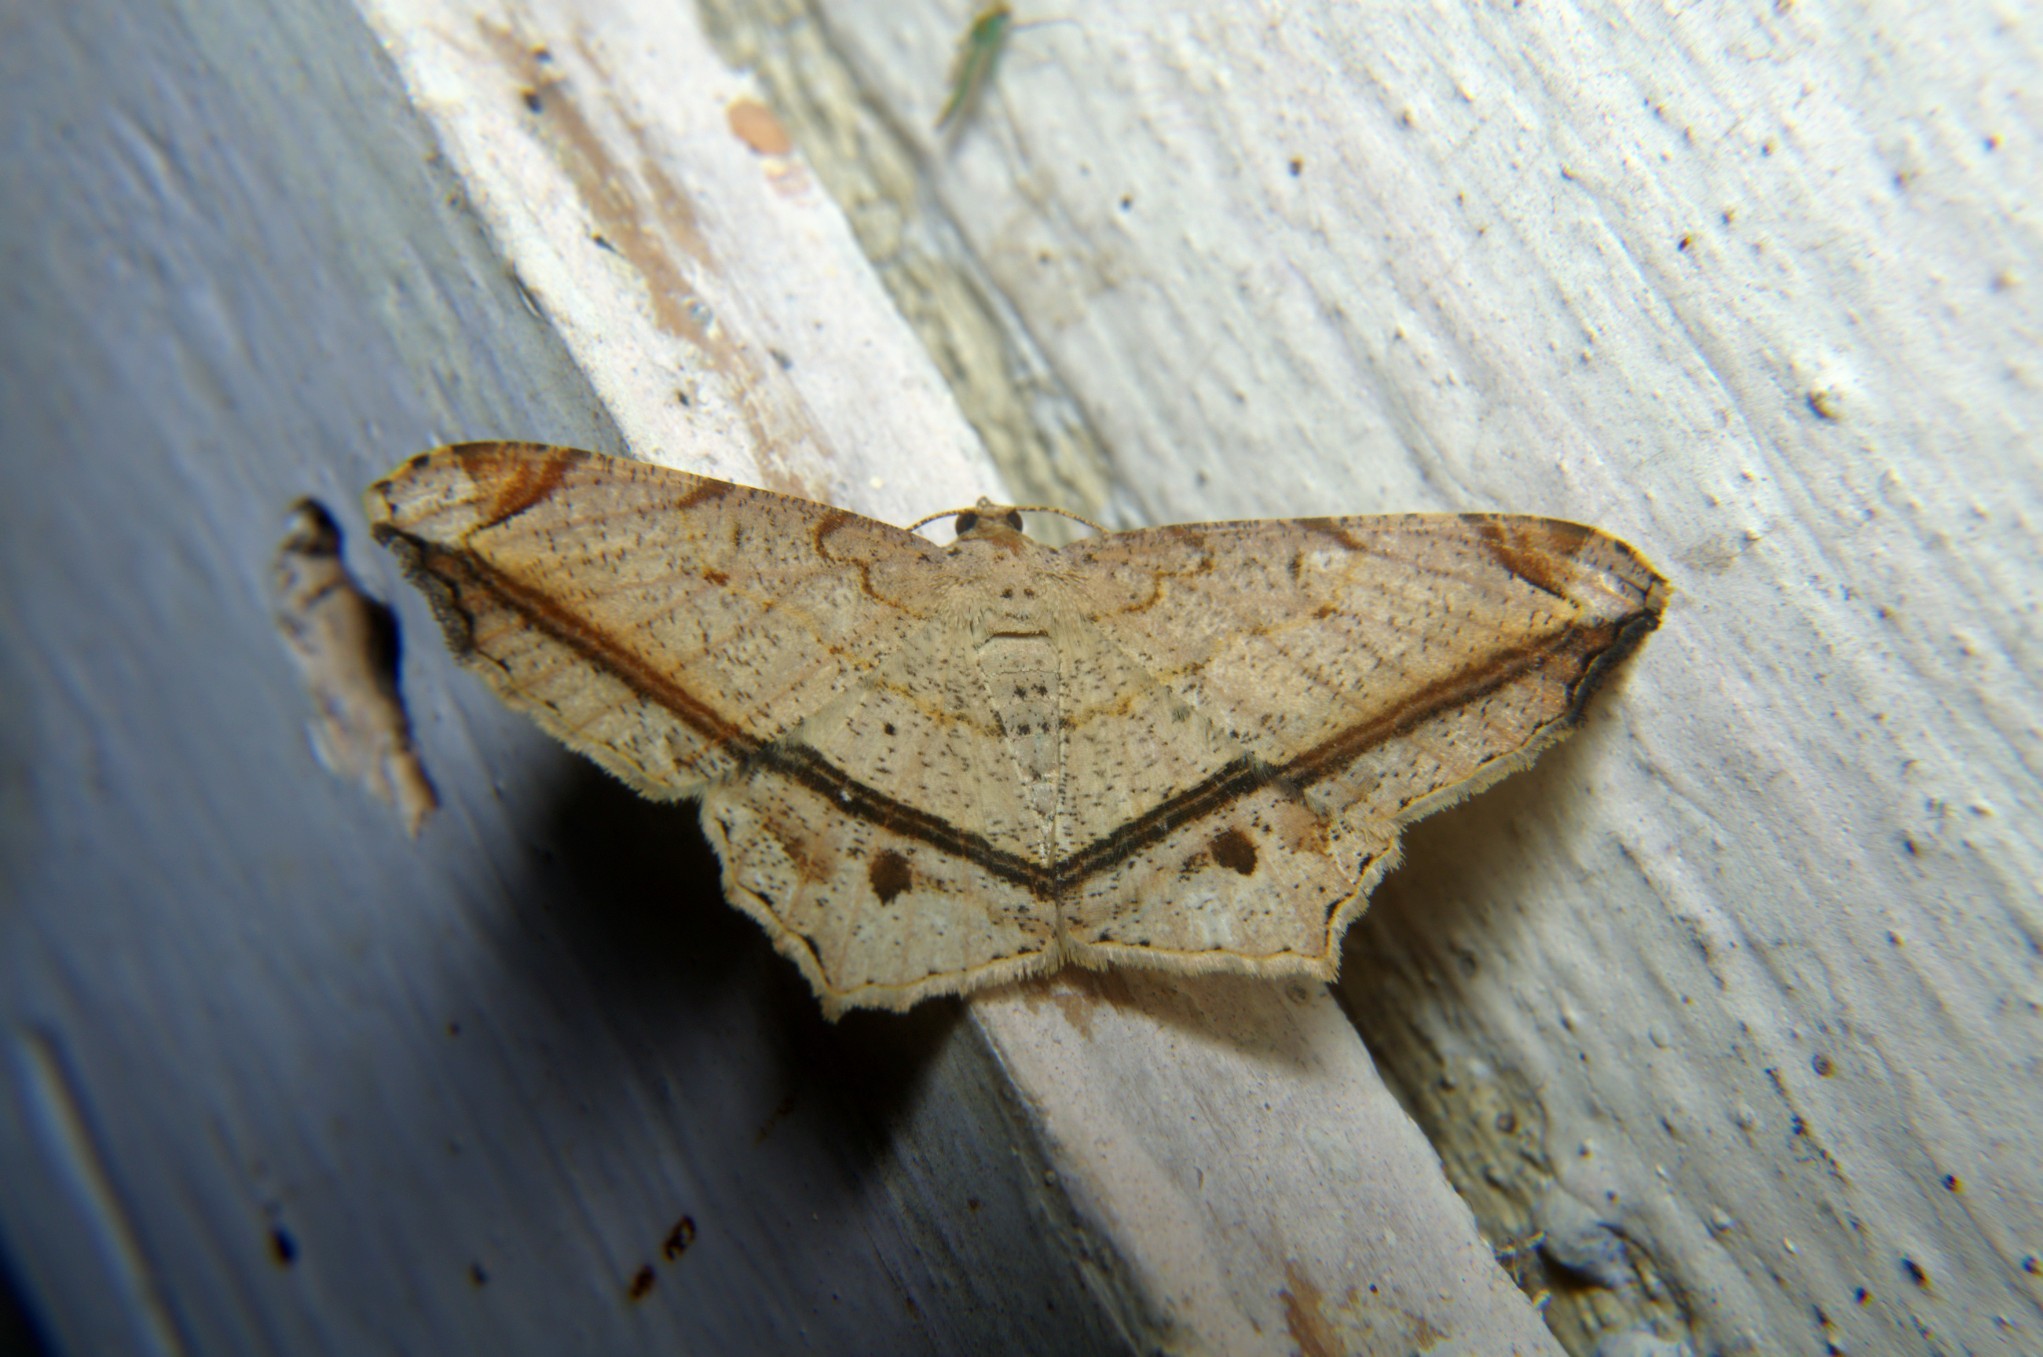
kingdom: Animalia
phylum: Arthropoda
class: Insecta
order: Lepidoptera
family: Geometridae
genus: Chiasmia
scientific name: Chiasmia ozararia
